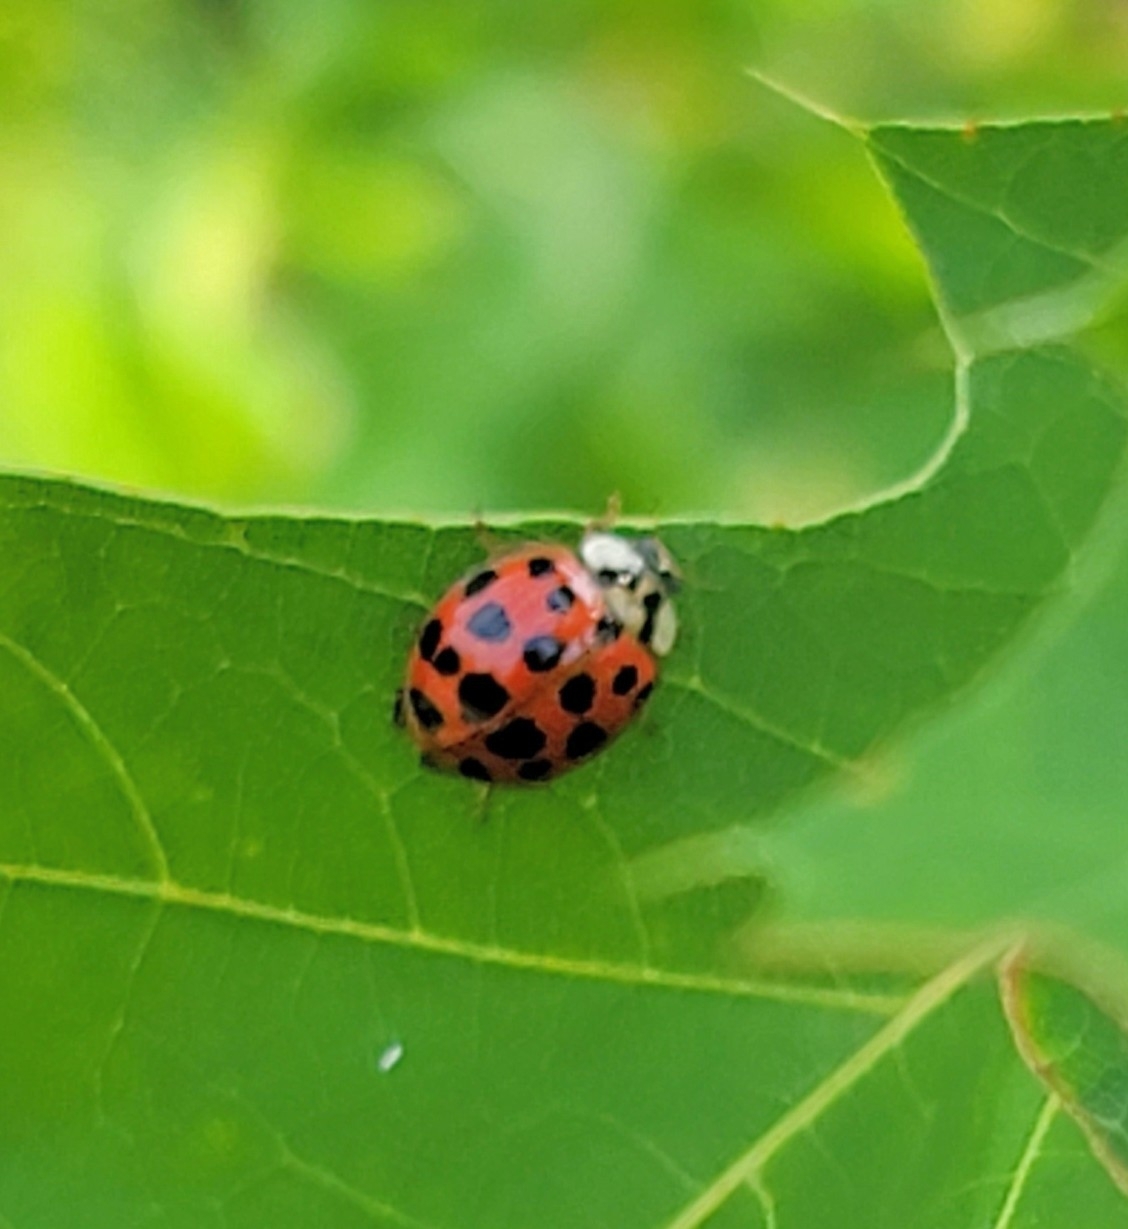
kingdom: Animalia
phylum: Arthropoda
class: Insecta
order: Coleoptera
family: Coccinellidae
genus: Harmonia
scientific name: Harmonia axyridis
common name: Harlequin ladybird
